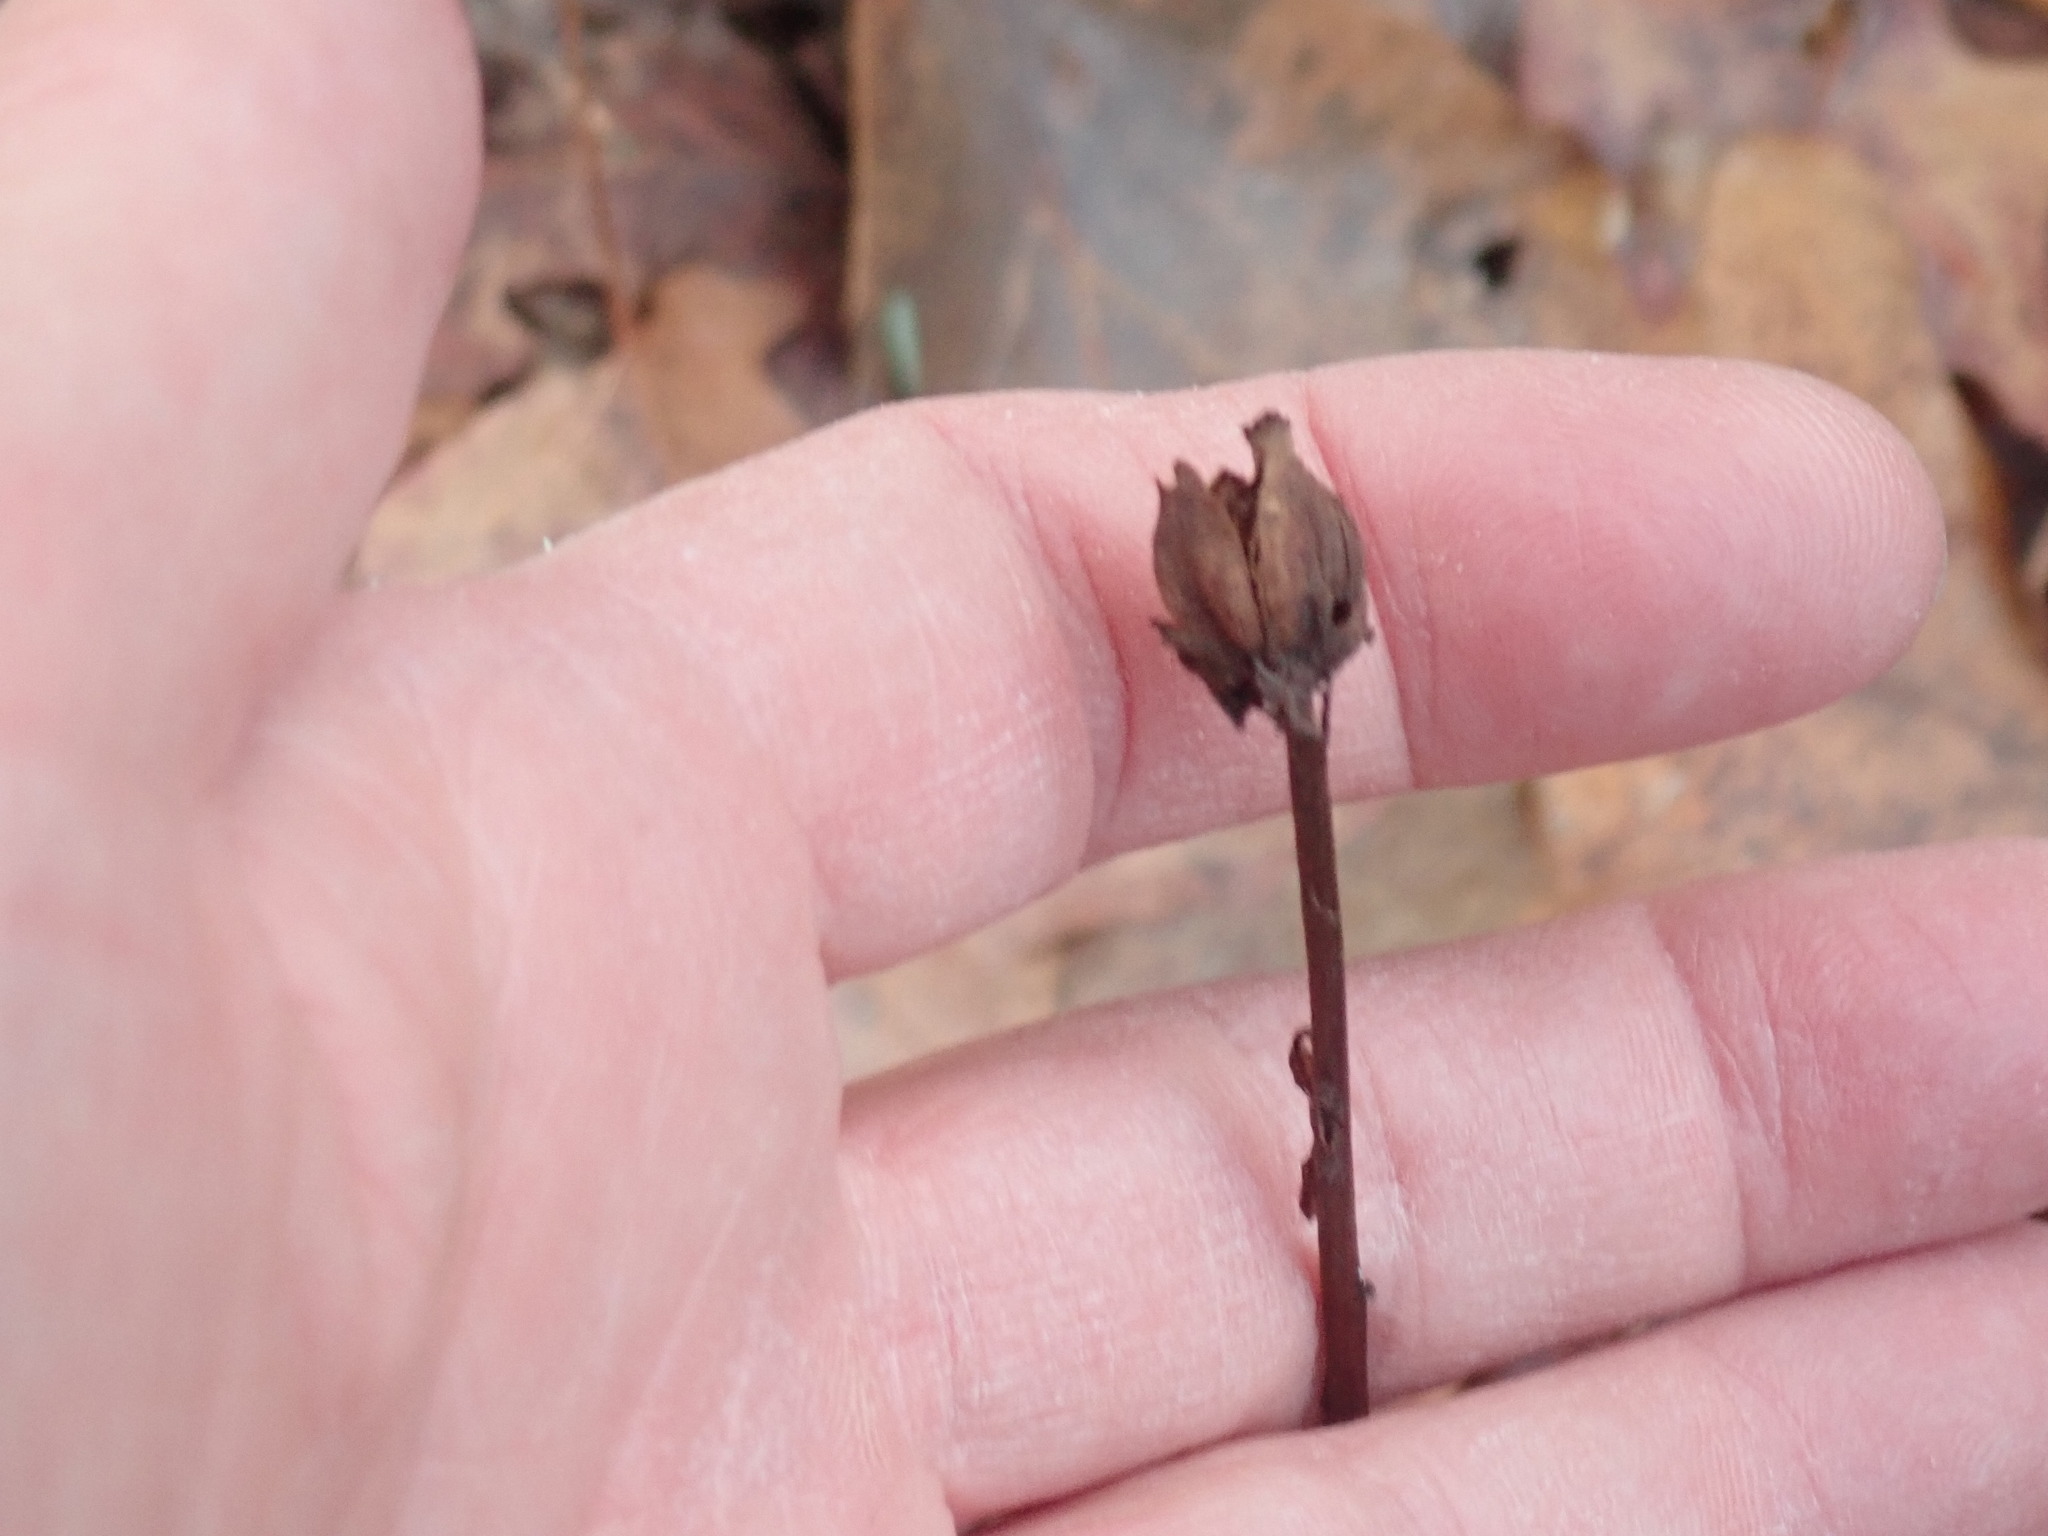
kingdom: Plantae
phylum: Tracheophyta
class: Magnoliopsida
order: Ericales
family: Ericaceae
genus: Monotropa
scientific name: Monotropa uniflora
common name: Convulsion root
